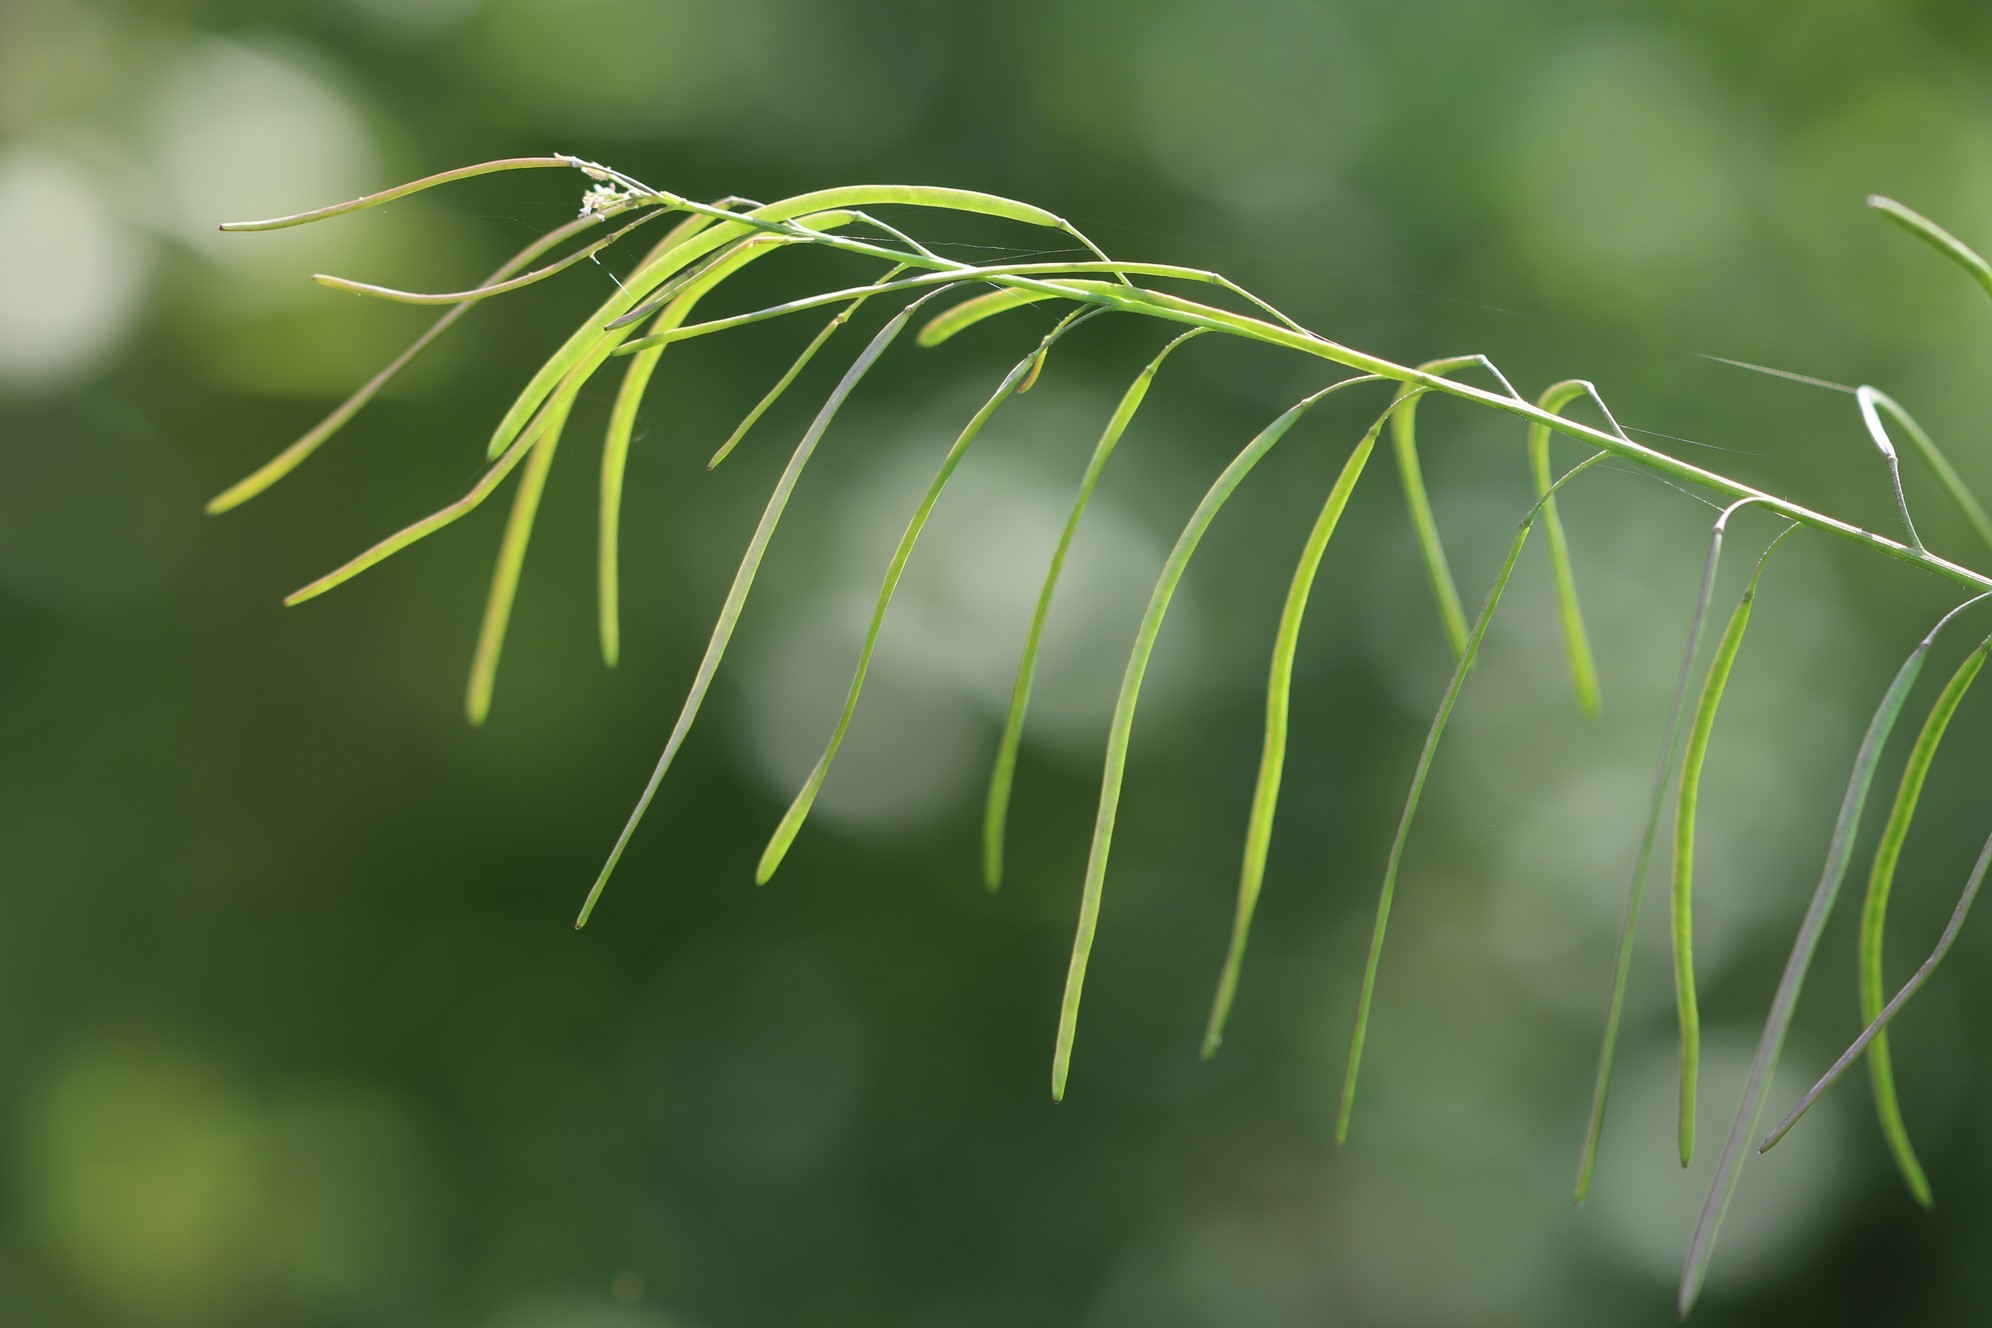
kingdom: Plantae
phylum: Tracheophyta
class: Magnoliopsida
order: Brassicales
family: Brassicaceae
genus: Catolobus
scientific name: Catolobus pendulus
